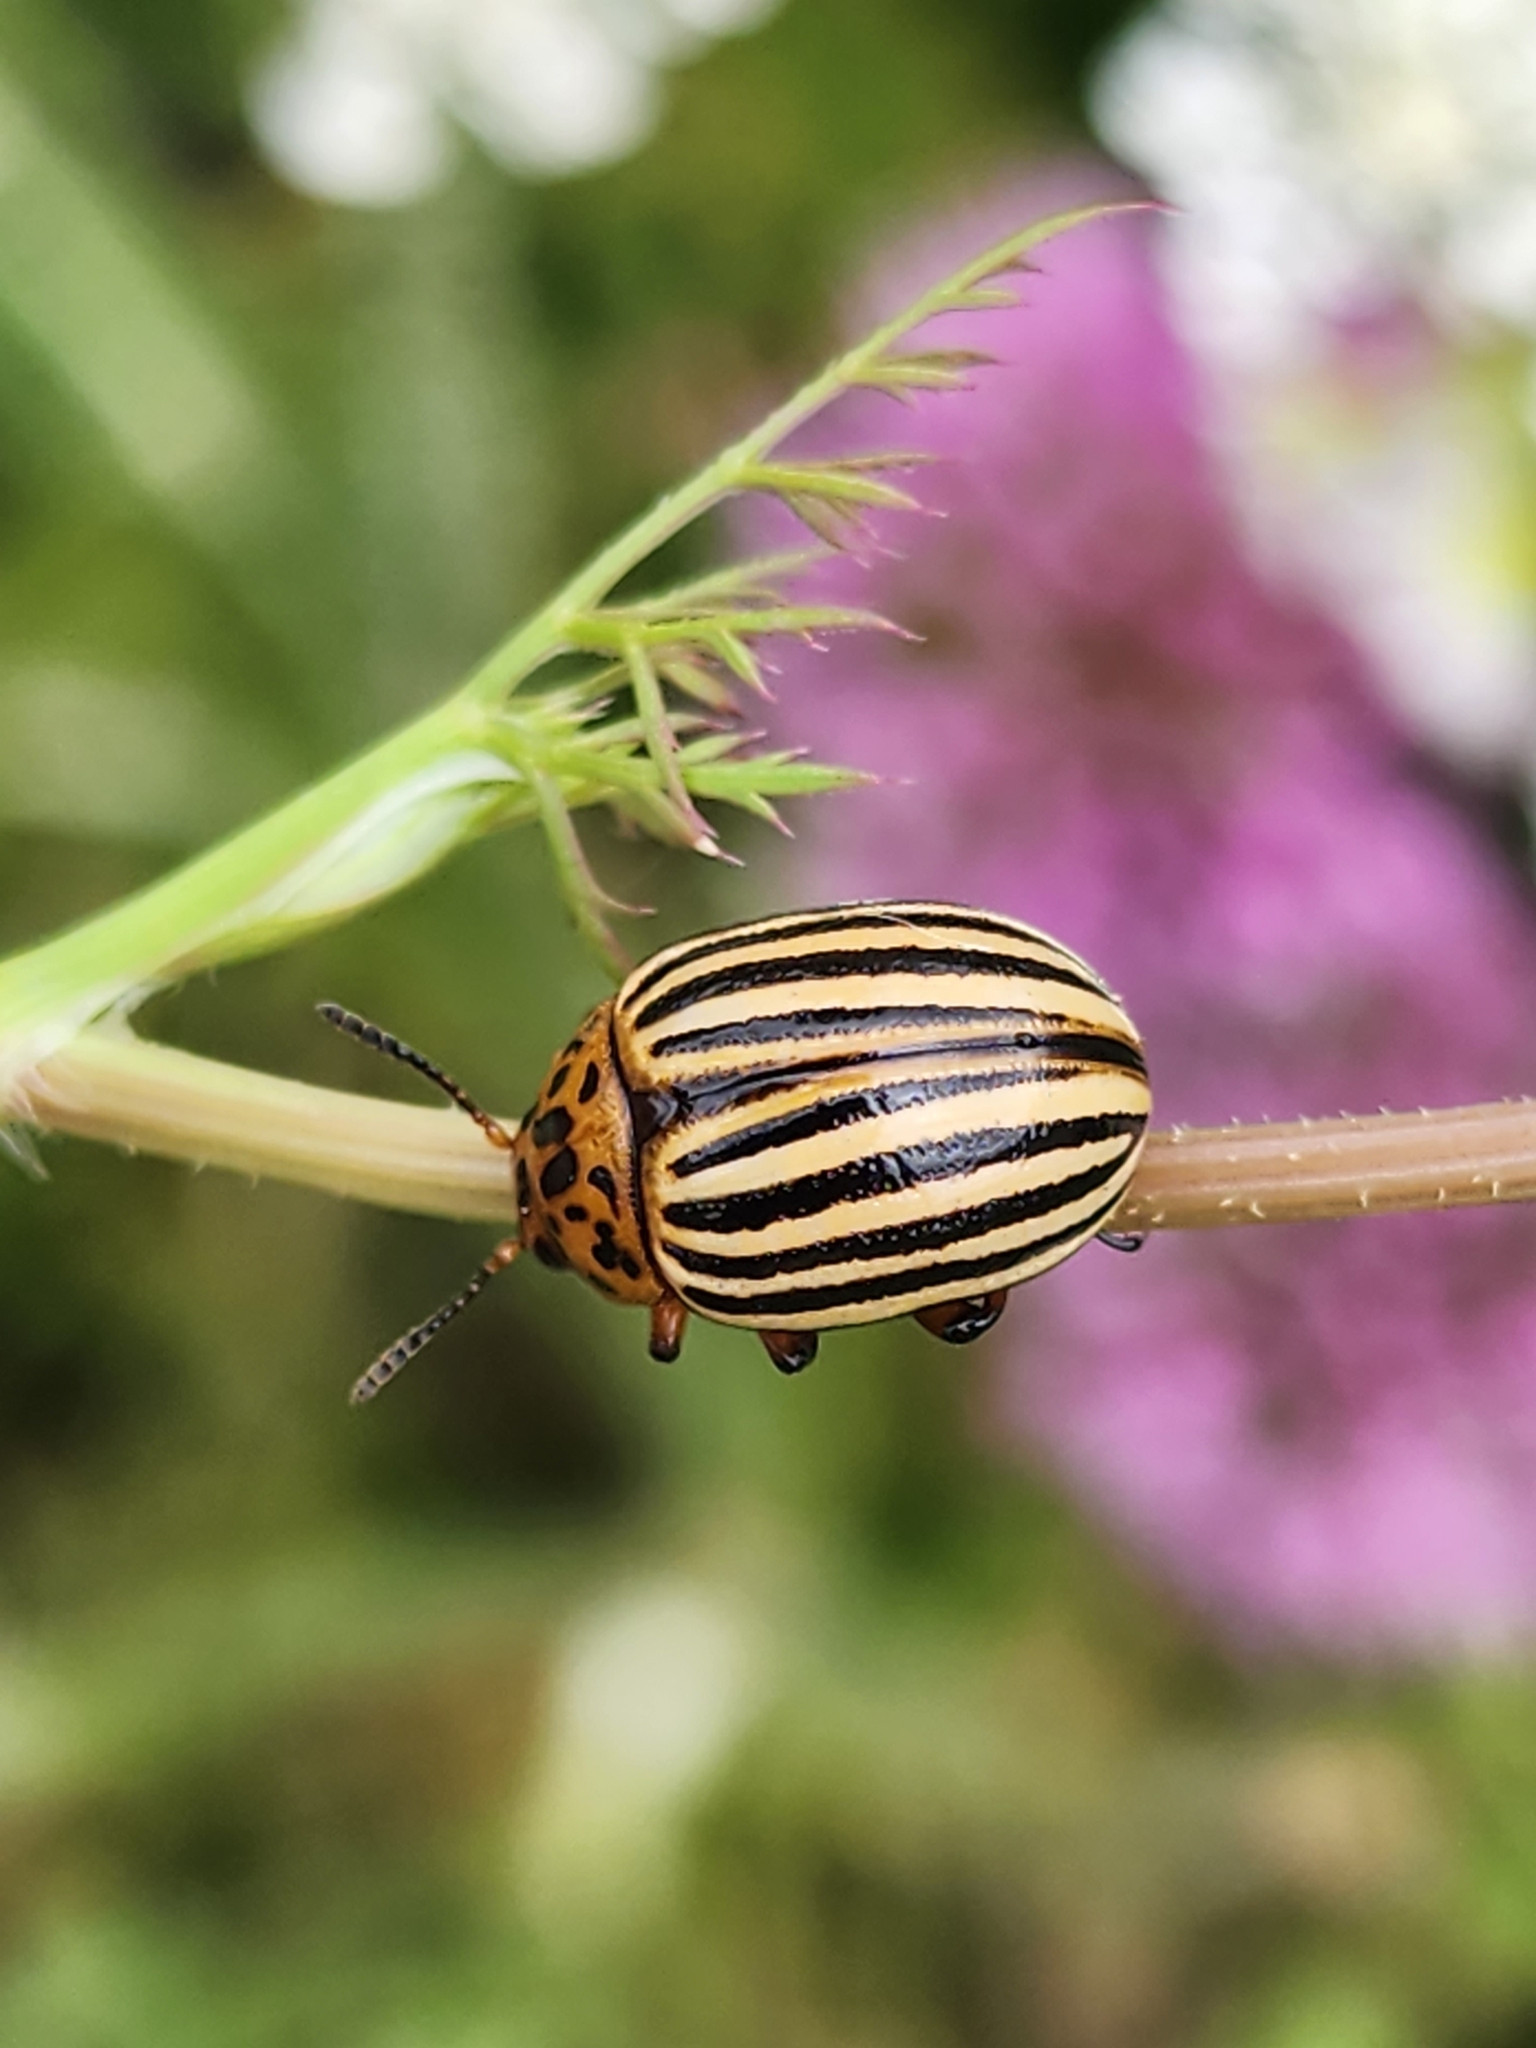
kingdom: Animalia
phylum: Arthropoda
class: Insecta
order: Coleoptera
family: Chrysomelidae
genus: Leptinotarsa
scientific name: Leptinotarsa decemlineata
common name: Colorado potato beetle
